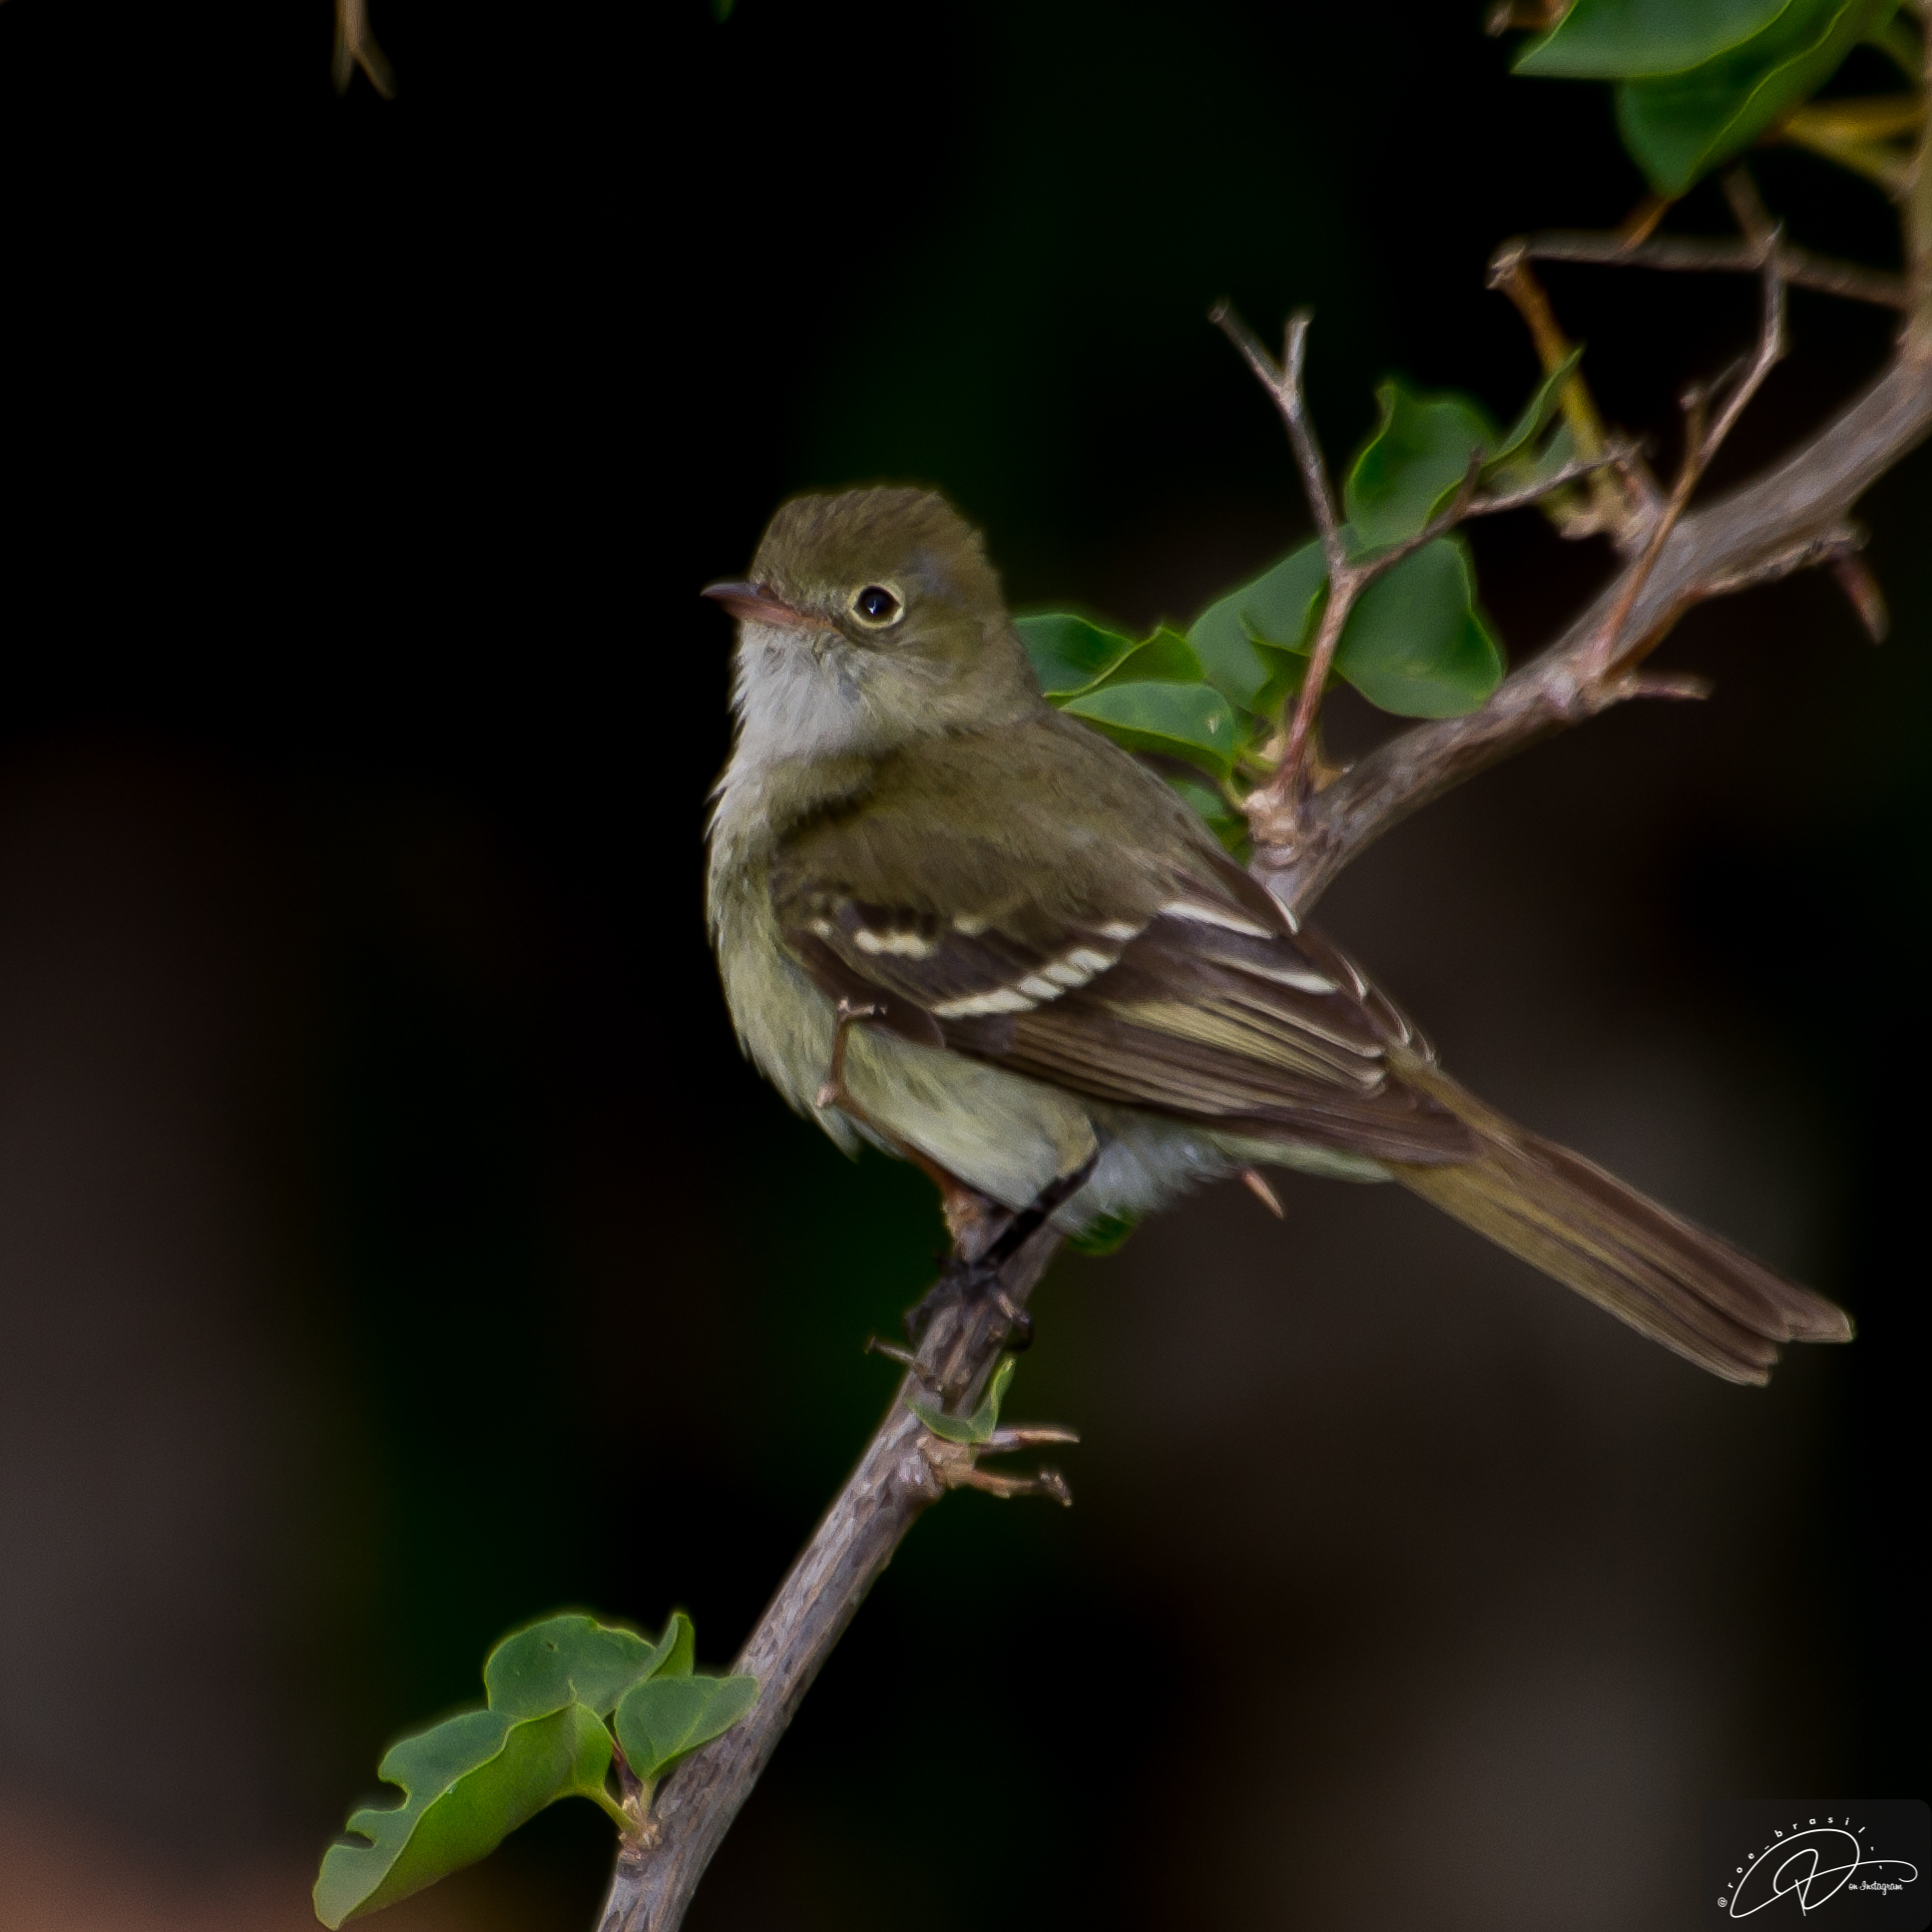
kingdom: Animalia
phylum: Chordata
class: Aves
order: Passeriformes
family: Tyrannidae
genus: Elaenia
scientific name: Elaenia parvirostris
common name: Small-billed elaenia
